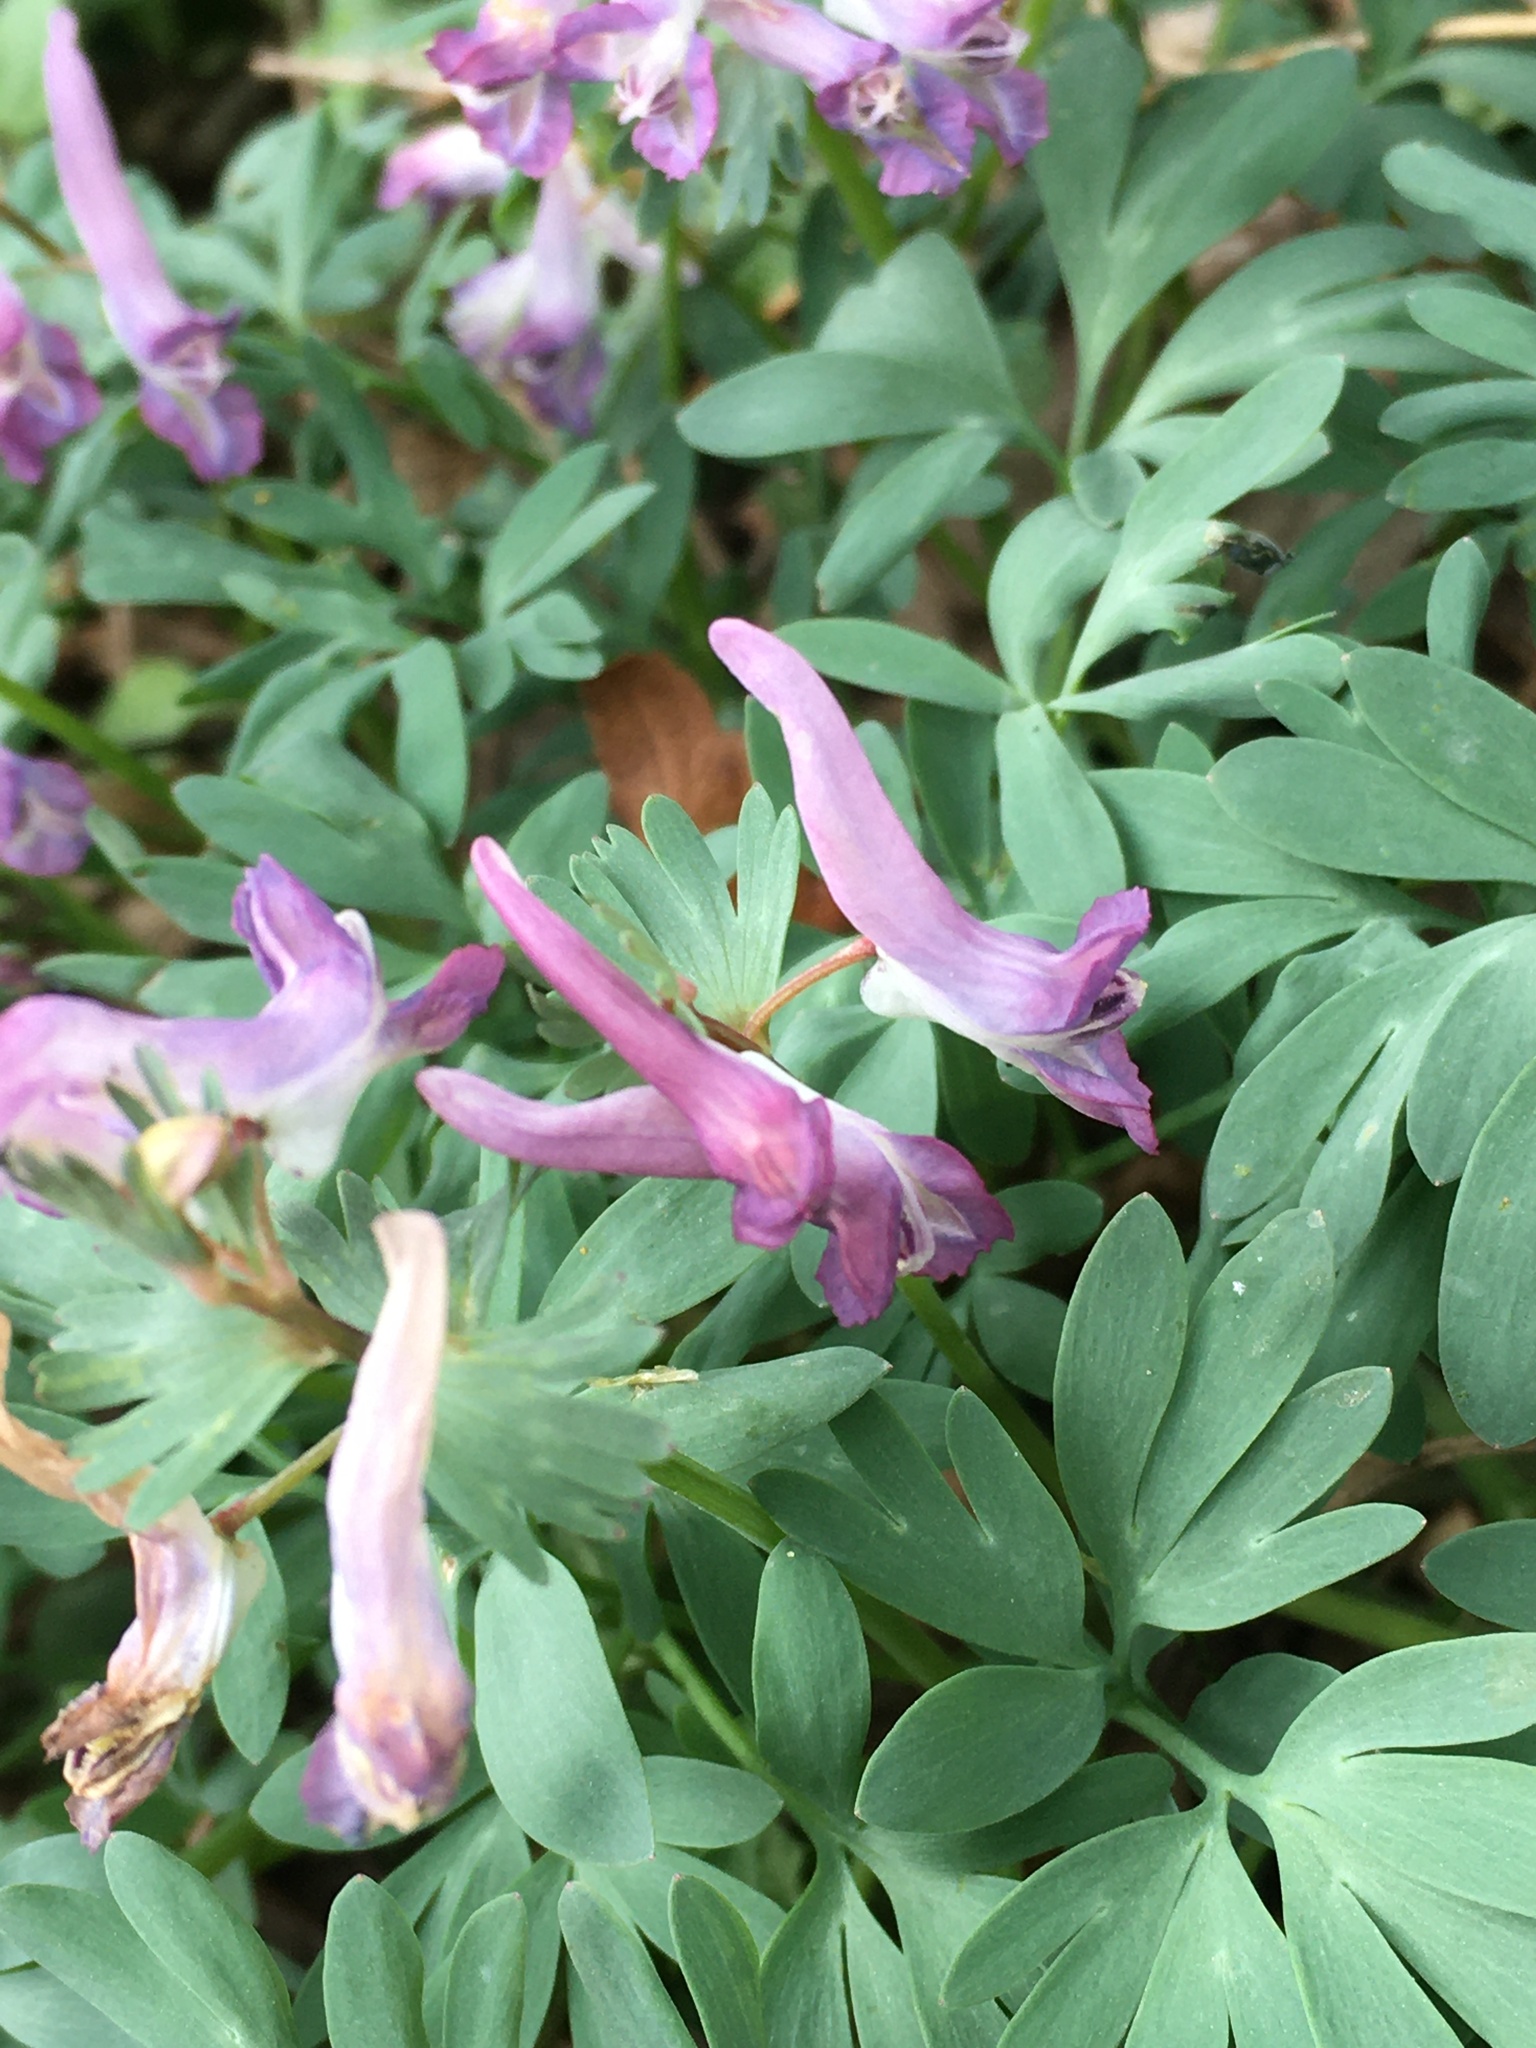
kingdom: Plantae
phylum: Tracheophyta
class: Magnoliopsida
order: Ranunculales
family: Papaveraceae
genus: Corydalis
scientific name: Corydalis solida
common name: Bird-in-a-bush
